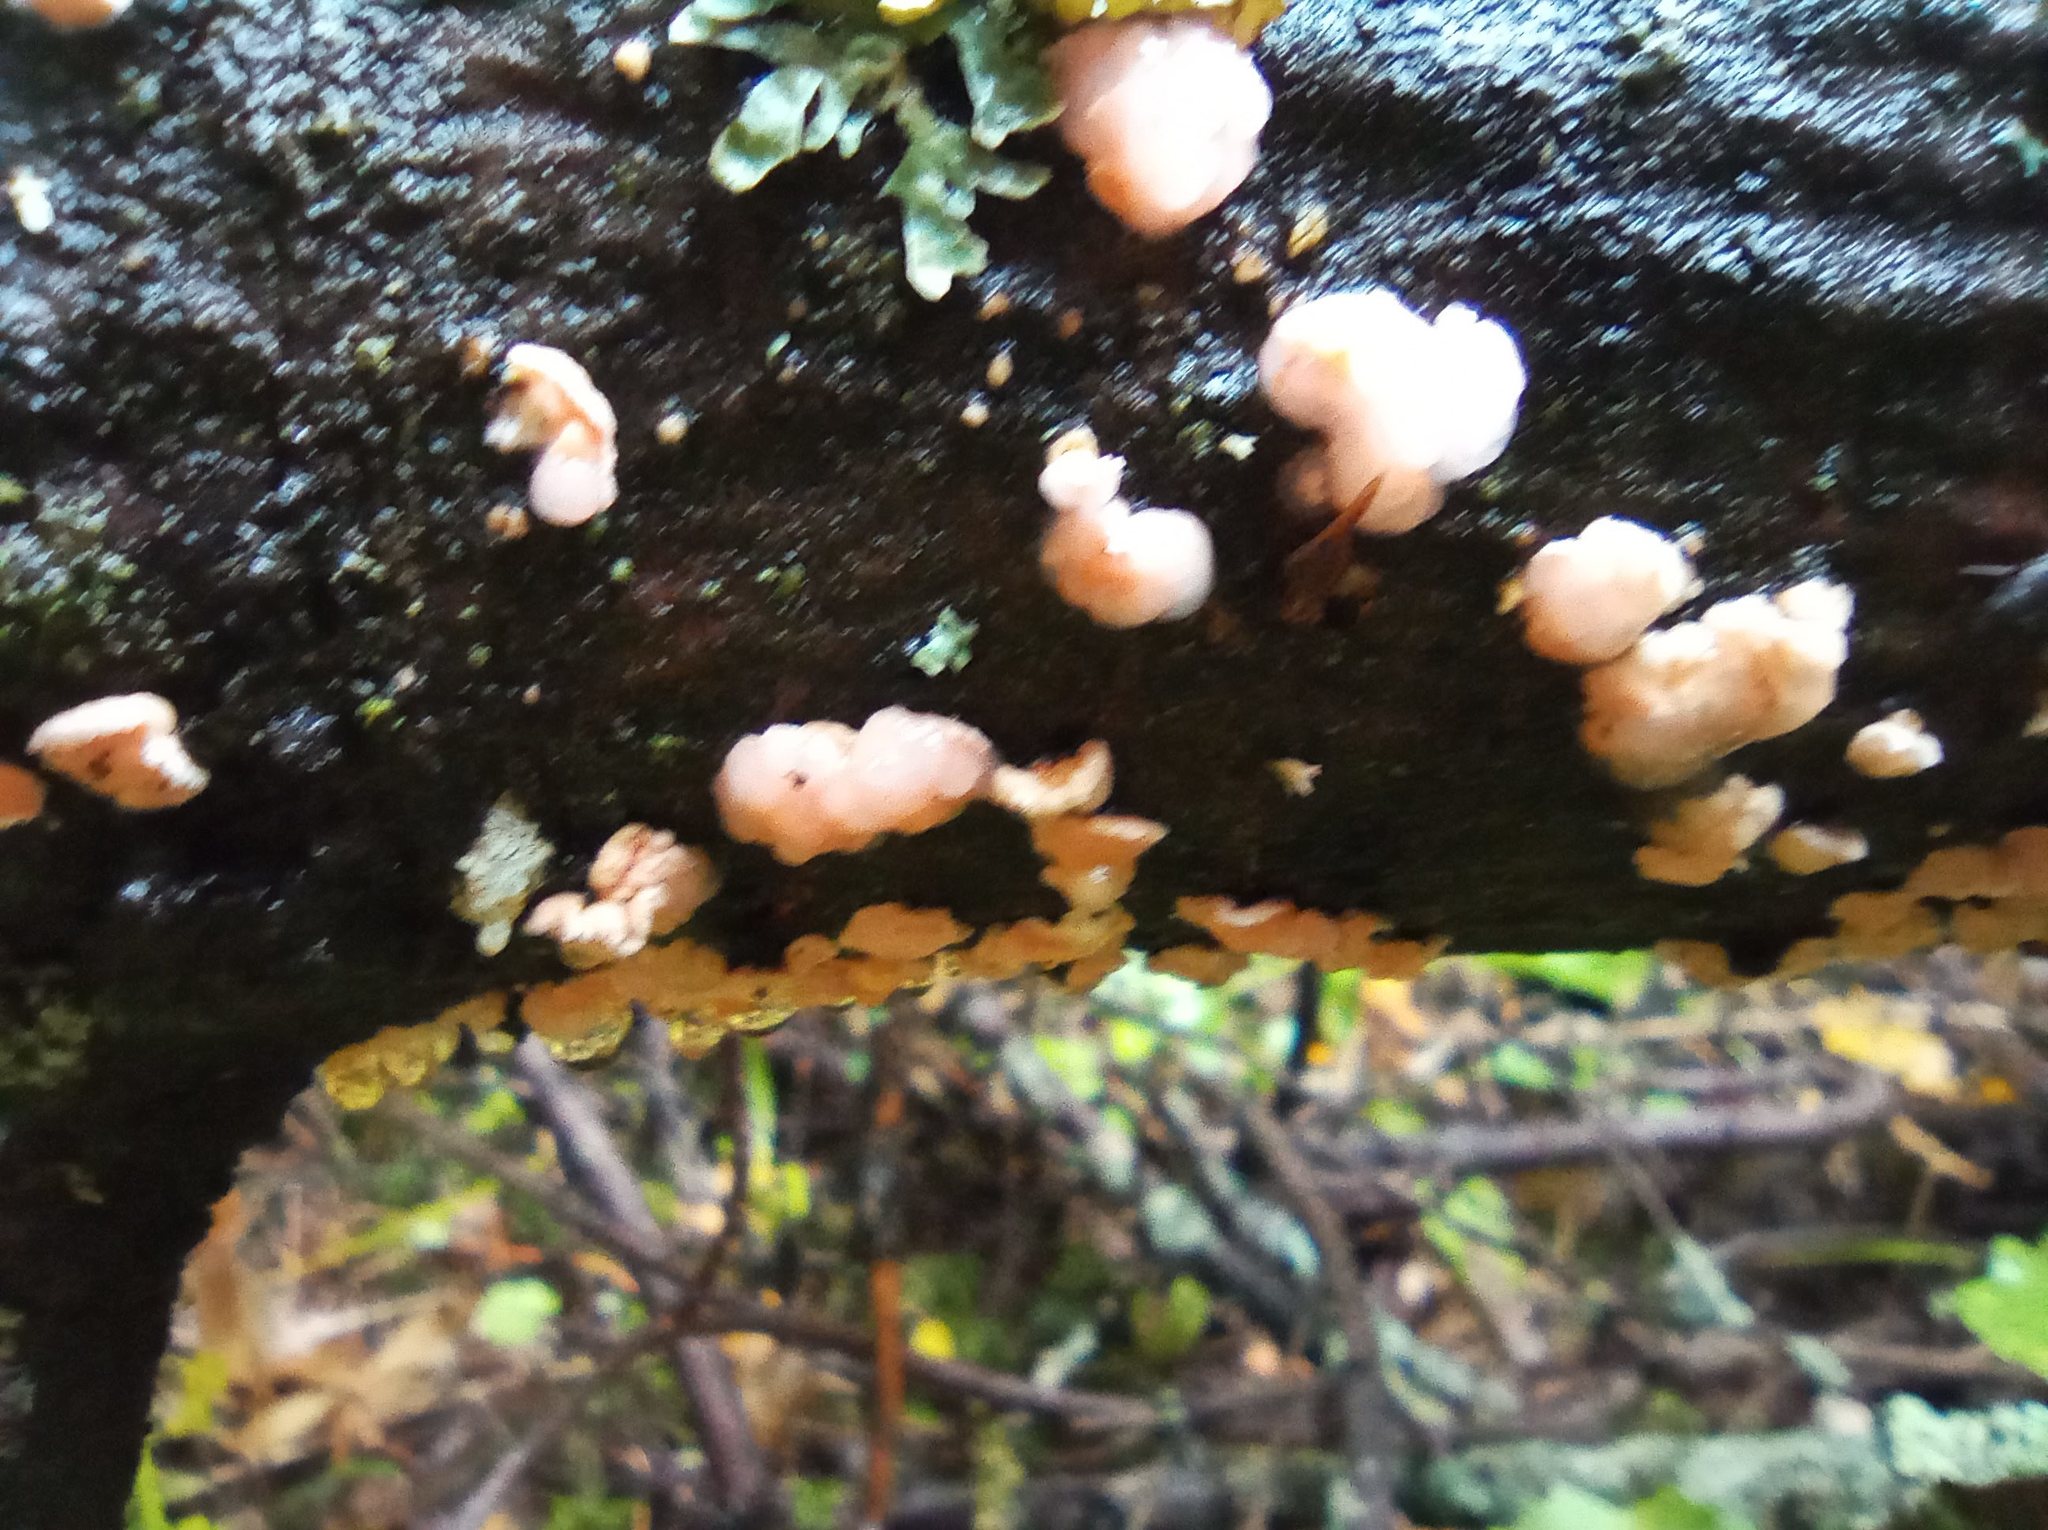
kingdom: Fungi
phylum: Basidiomycota
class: Tremellomycetes
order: Tremellales
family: Tremellaceae
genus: Phaeotremella
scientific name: Phaeotremella mycophaga
